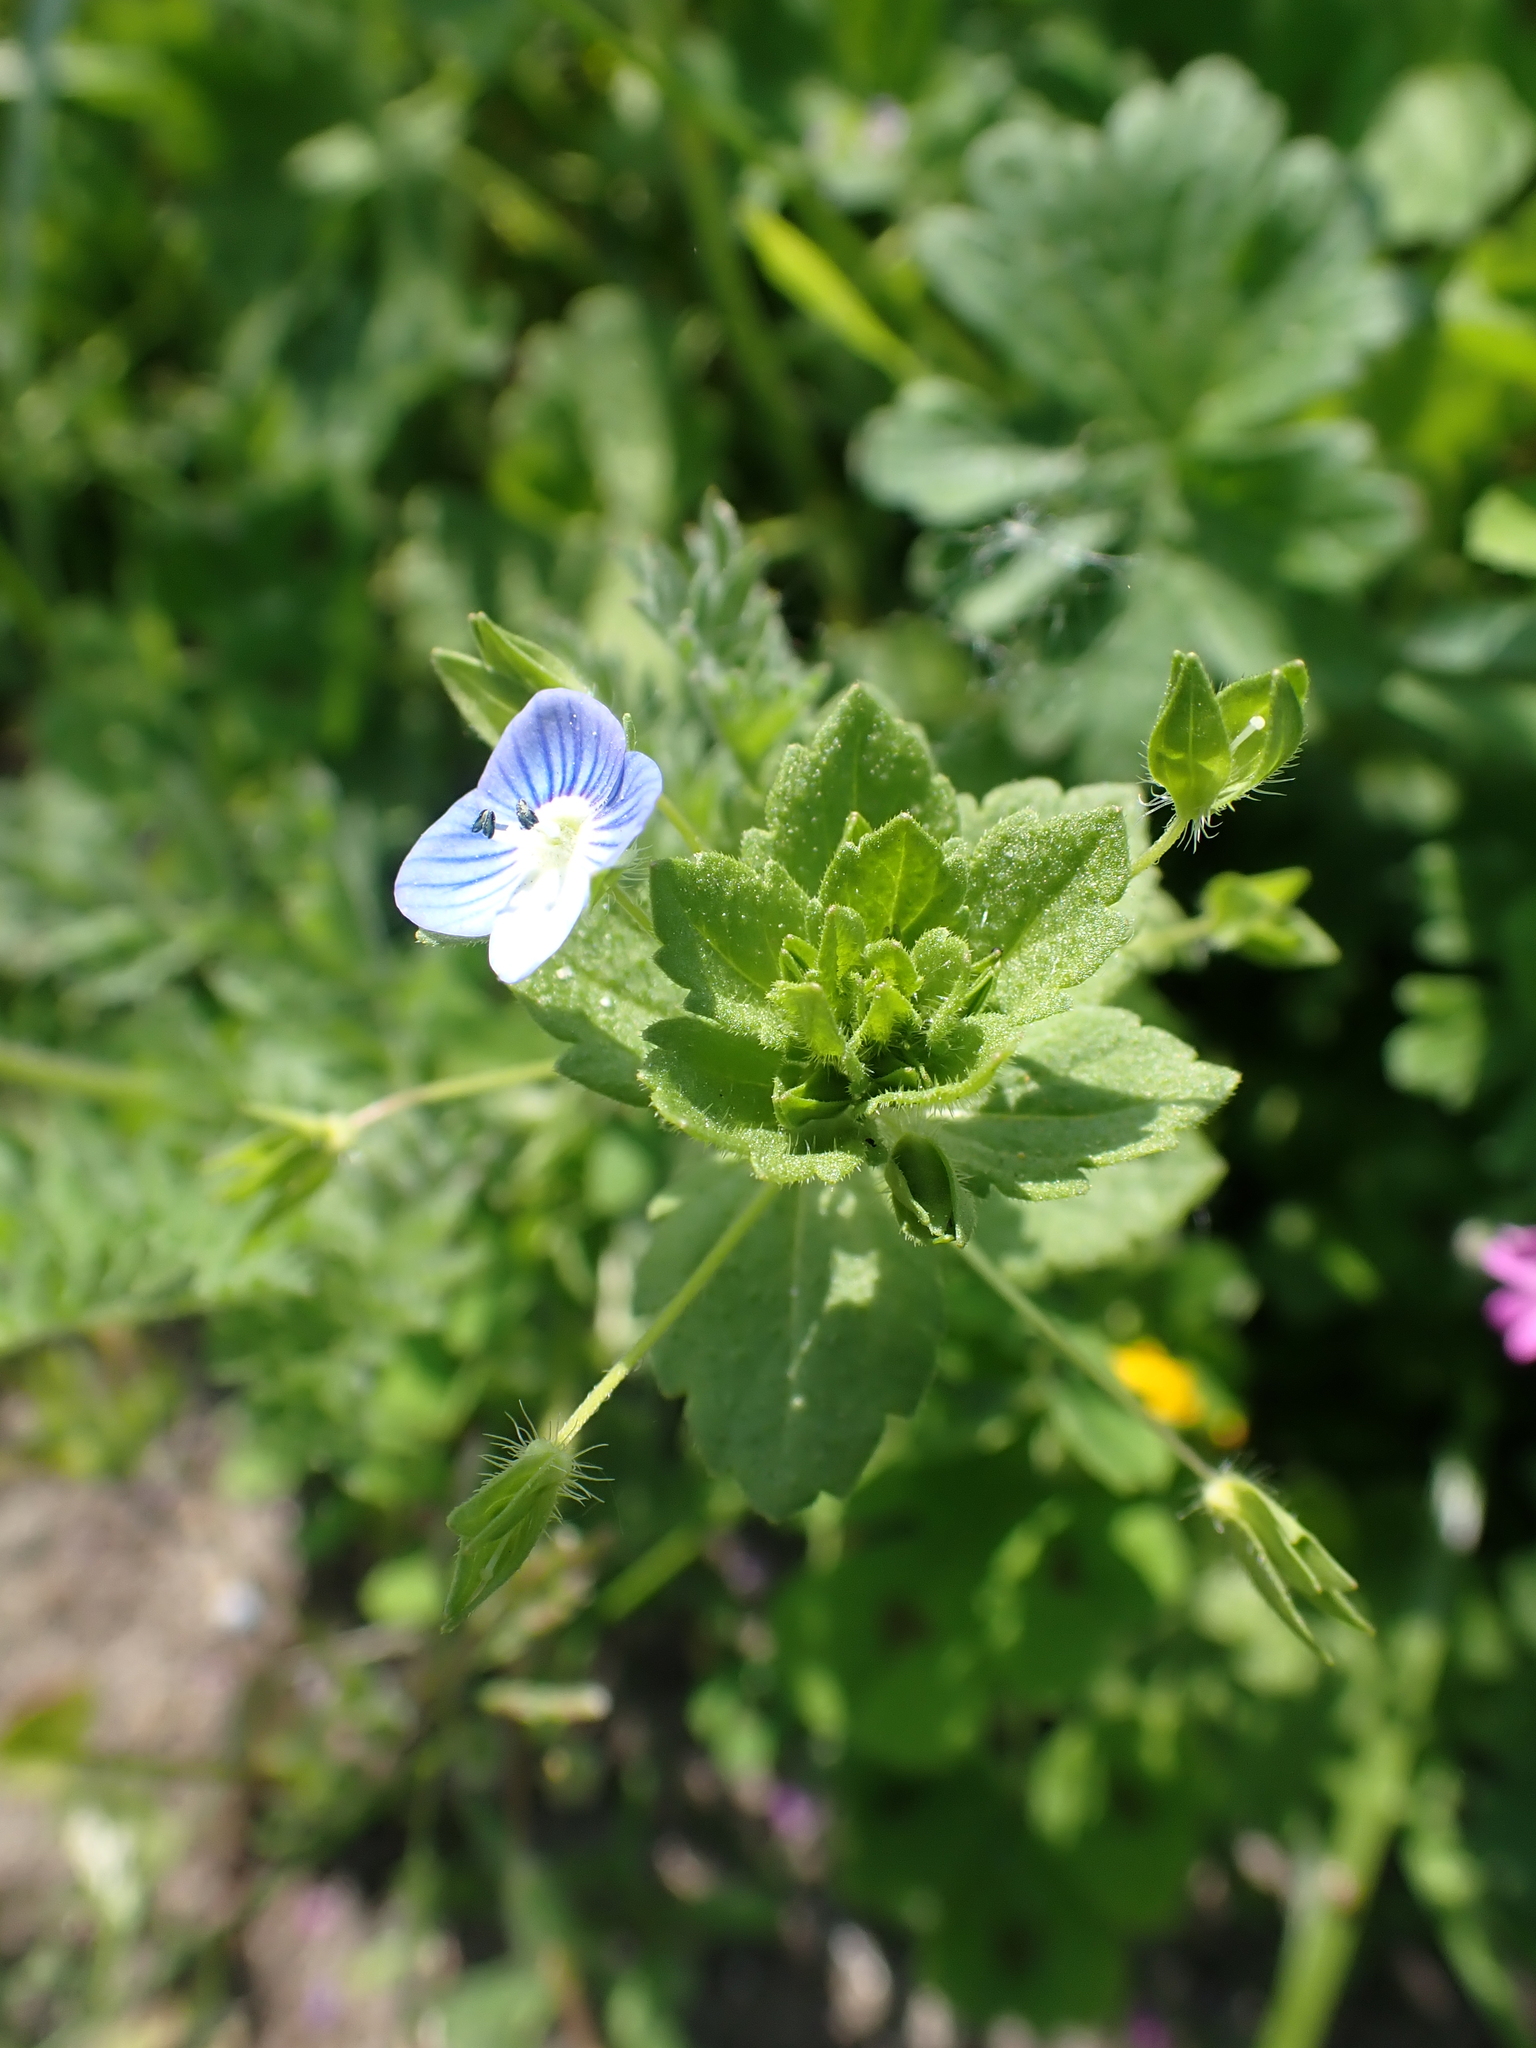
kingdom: Plantae
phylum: Tracheophyta
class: Magnoliopsida
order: Lamiales
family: Plantaginaceae
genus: Veronica
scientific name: Veronica persica
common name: Common field-speedwell
